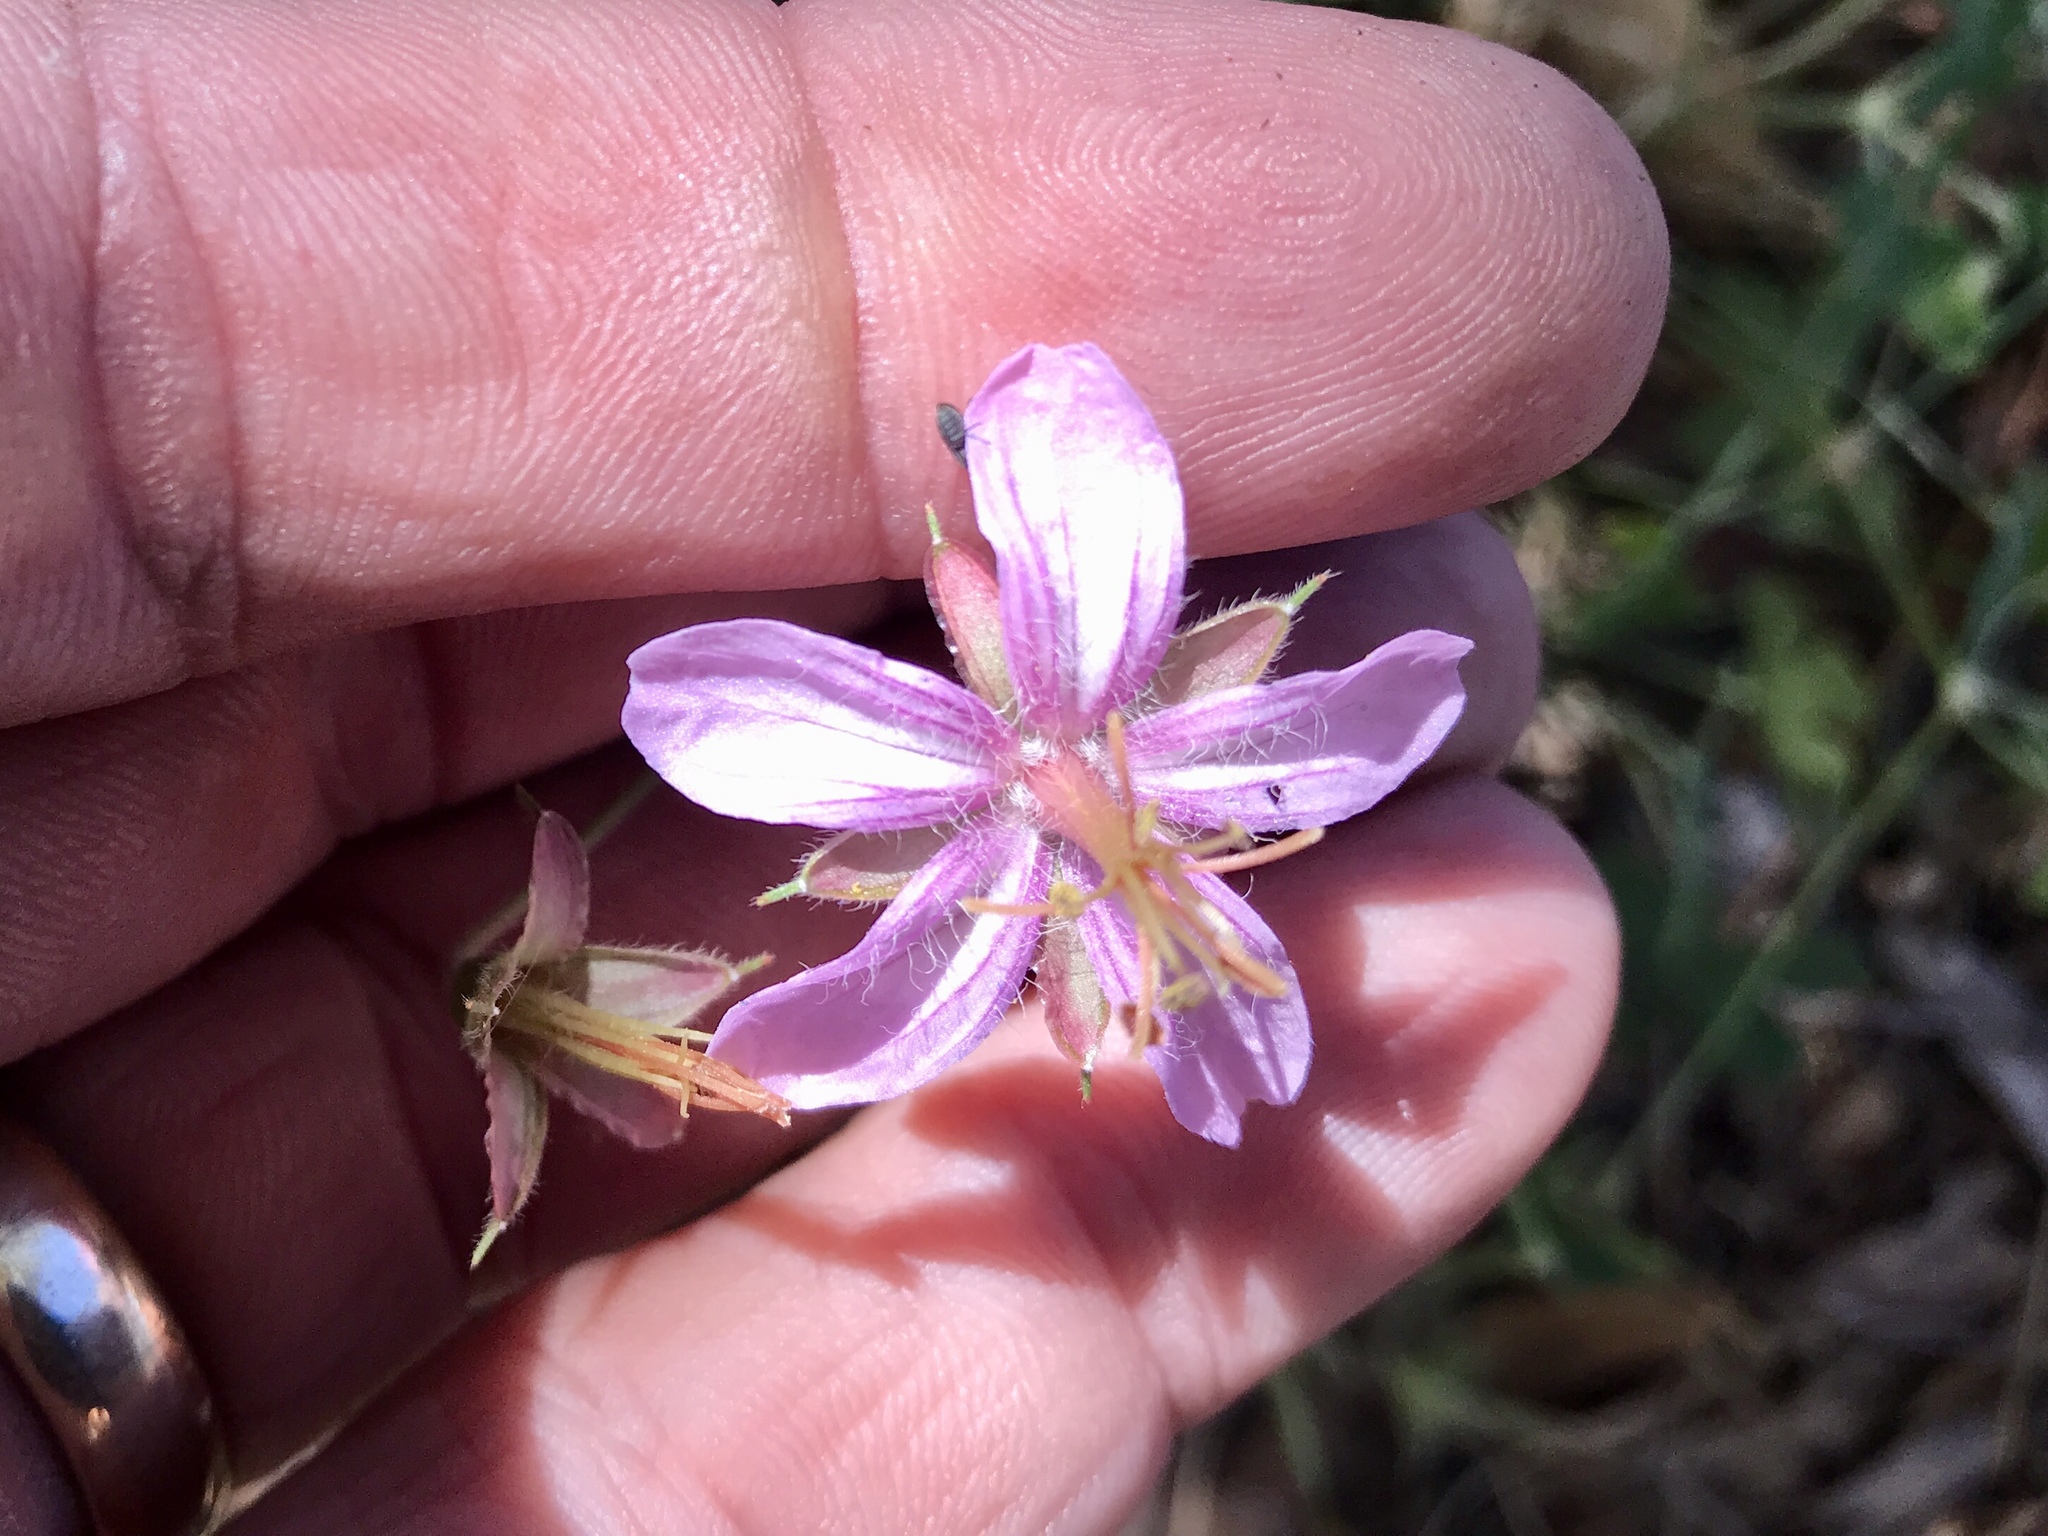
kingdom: Plantae
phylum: Tracheophyta
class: Magnoliopsida
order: Geraniales
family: Geraniaceae
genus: Geranium
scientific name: Geranium caespitosum
